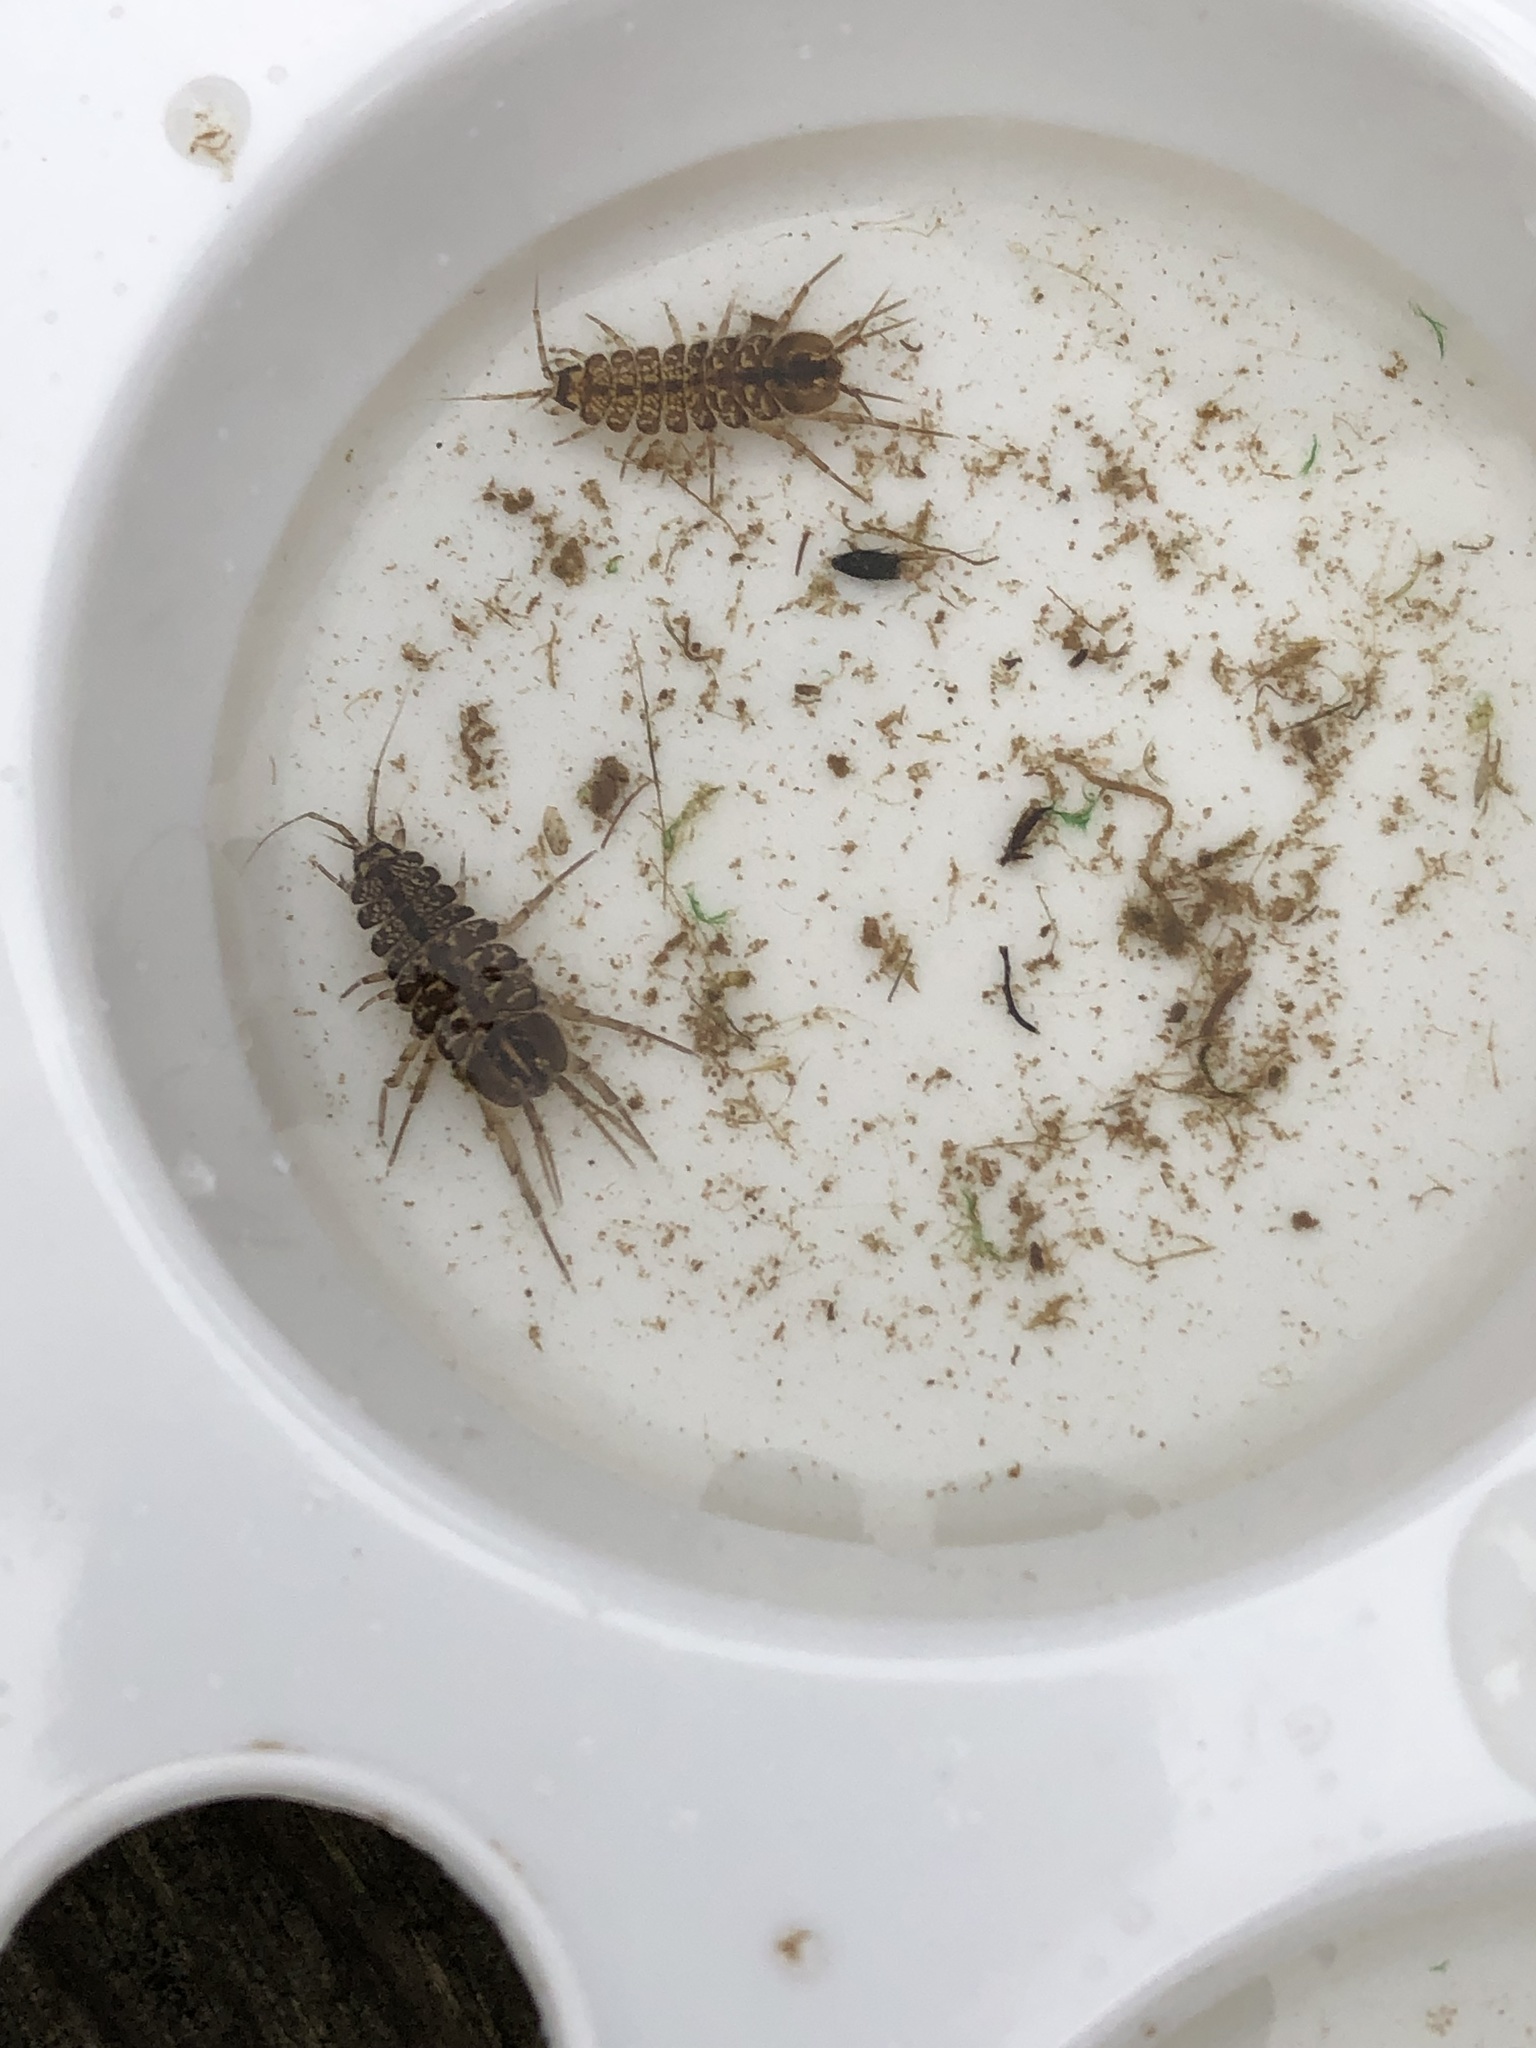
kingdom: Animalia
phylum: Arthropoda
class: Malacostraca
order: Isopoda
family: Asellidae
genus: Asellus
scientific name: Asellus aquaticus
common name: Water hog lice/slaters
